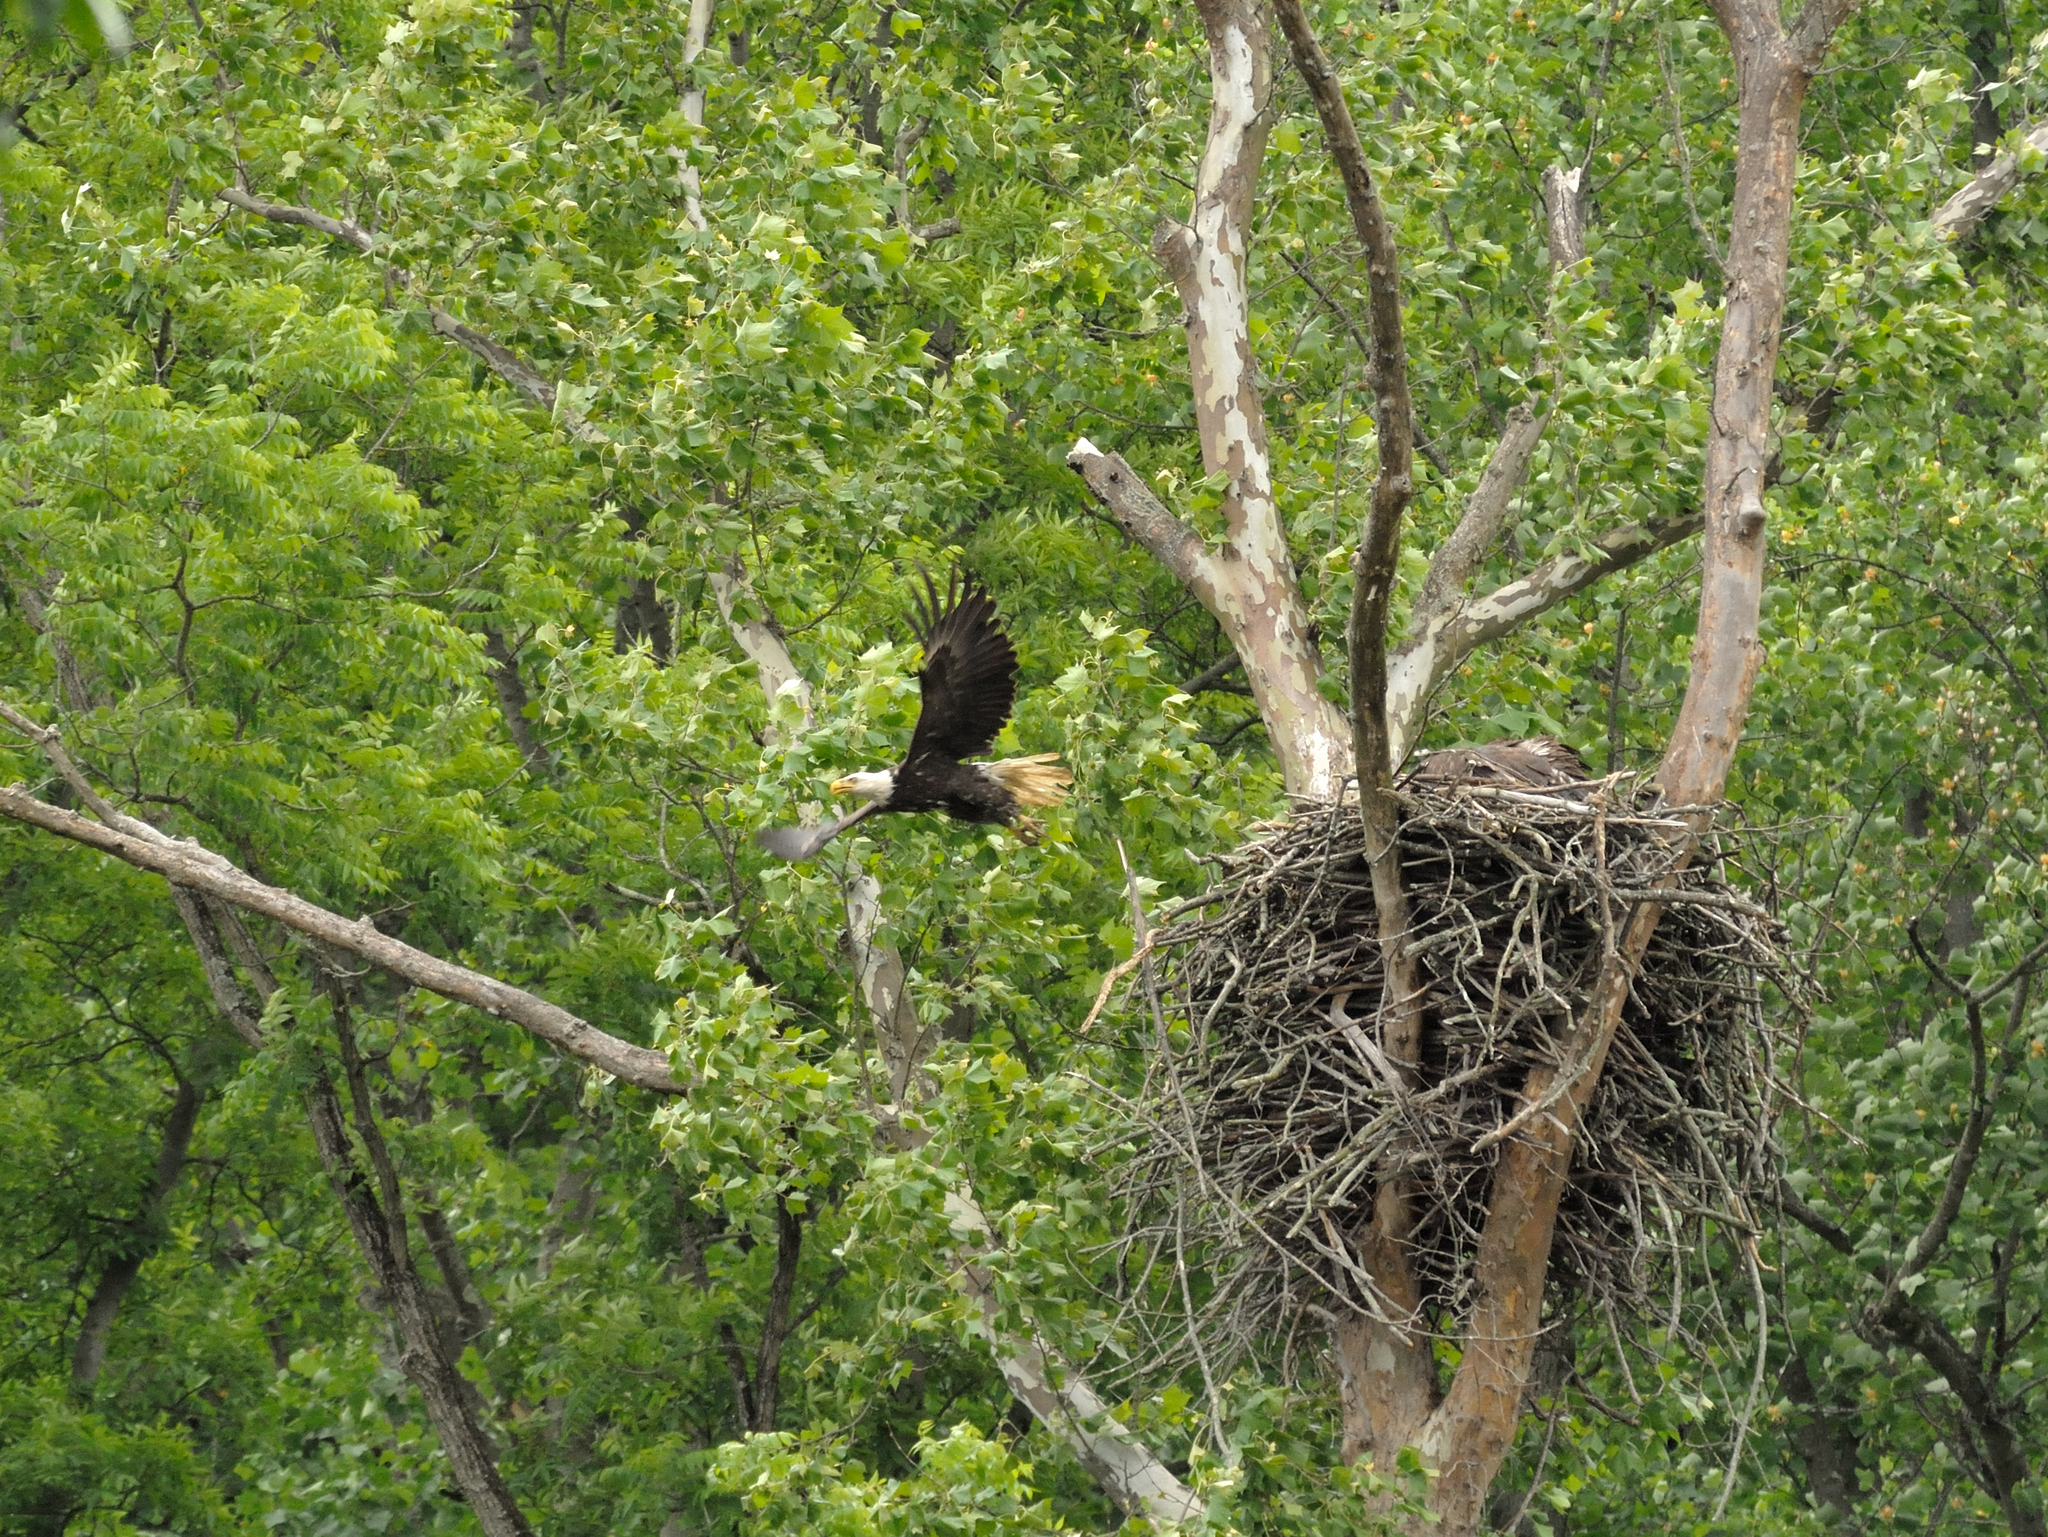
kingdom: Animalia
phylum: Chordata
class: Aves
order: Accipitriformes
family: Accipitridae
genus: Haliaeetus
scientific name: Haliaeetus leucocephalus
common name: Bald eagle
